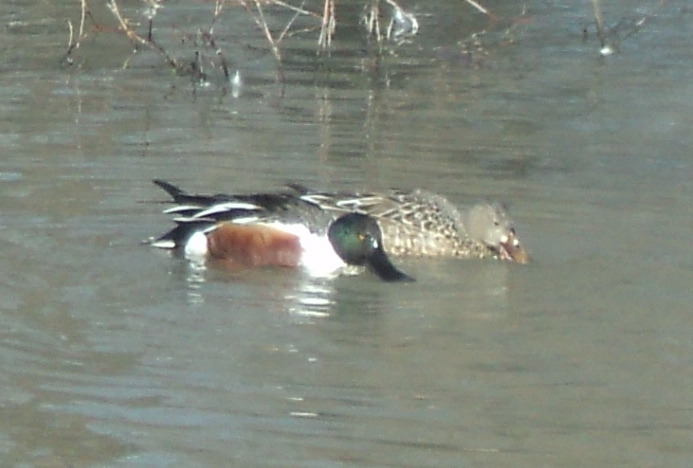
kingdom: Animalia
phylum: Chordata
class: Aves
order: Anseriformes
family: Anatidae
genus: Spatula
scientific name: Spatula clypeata
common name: Northern shoveler
